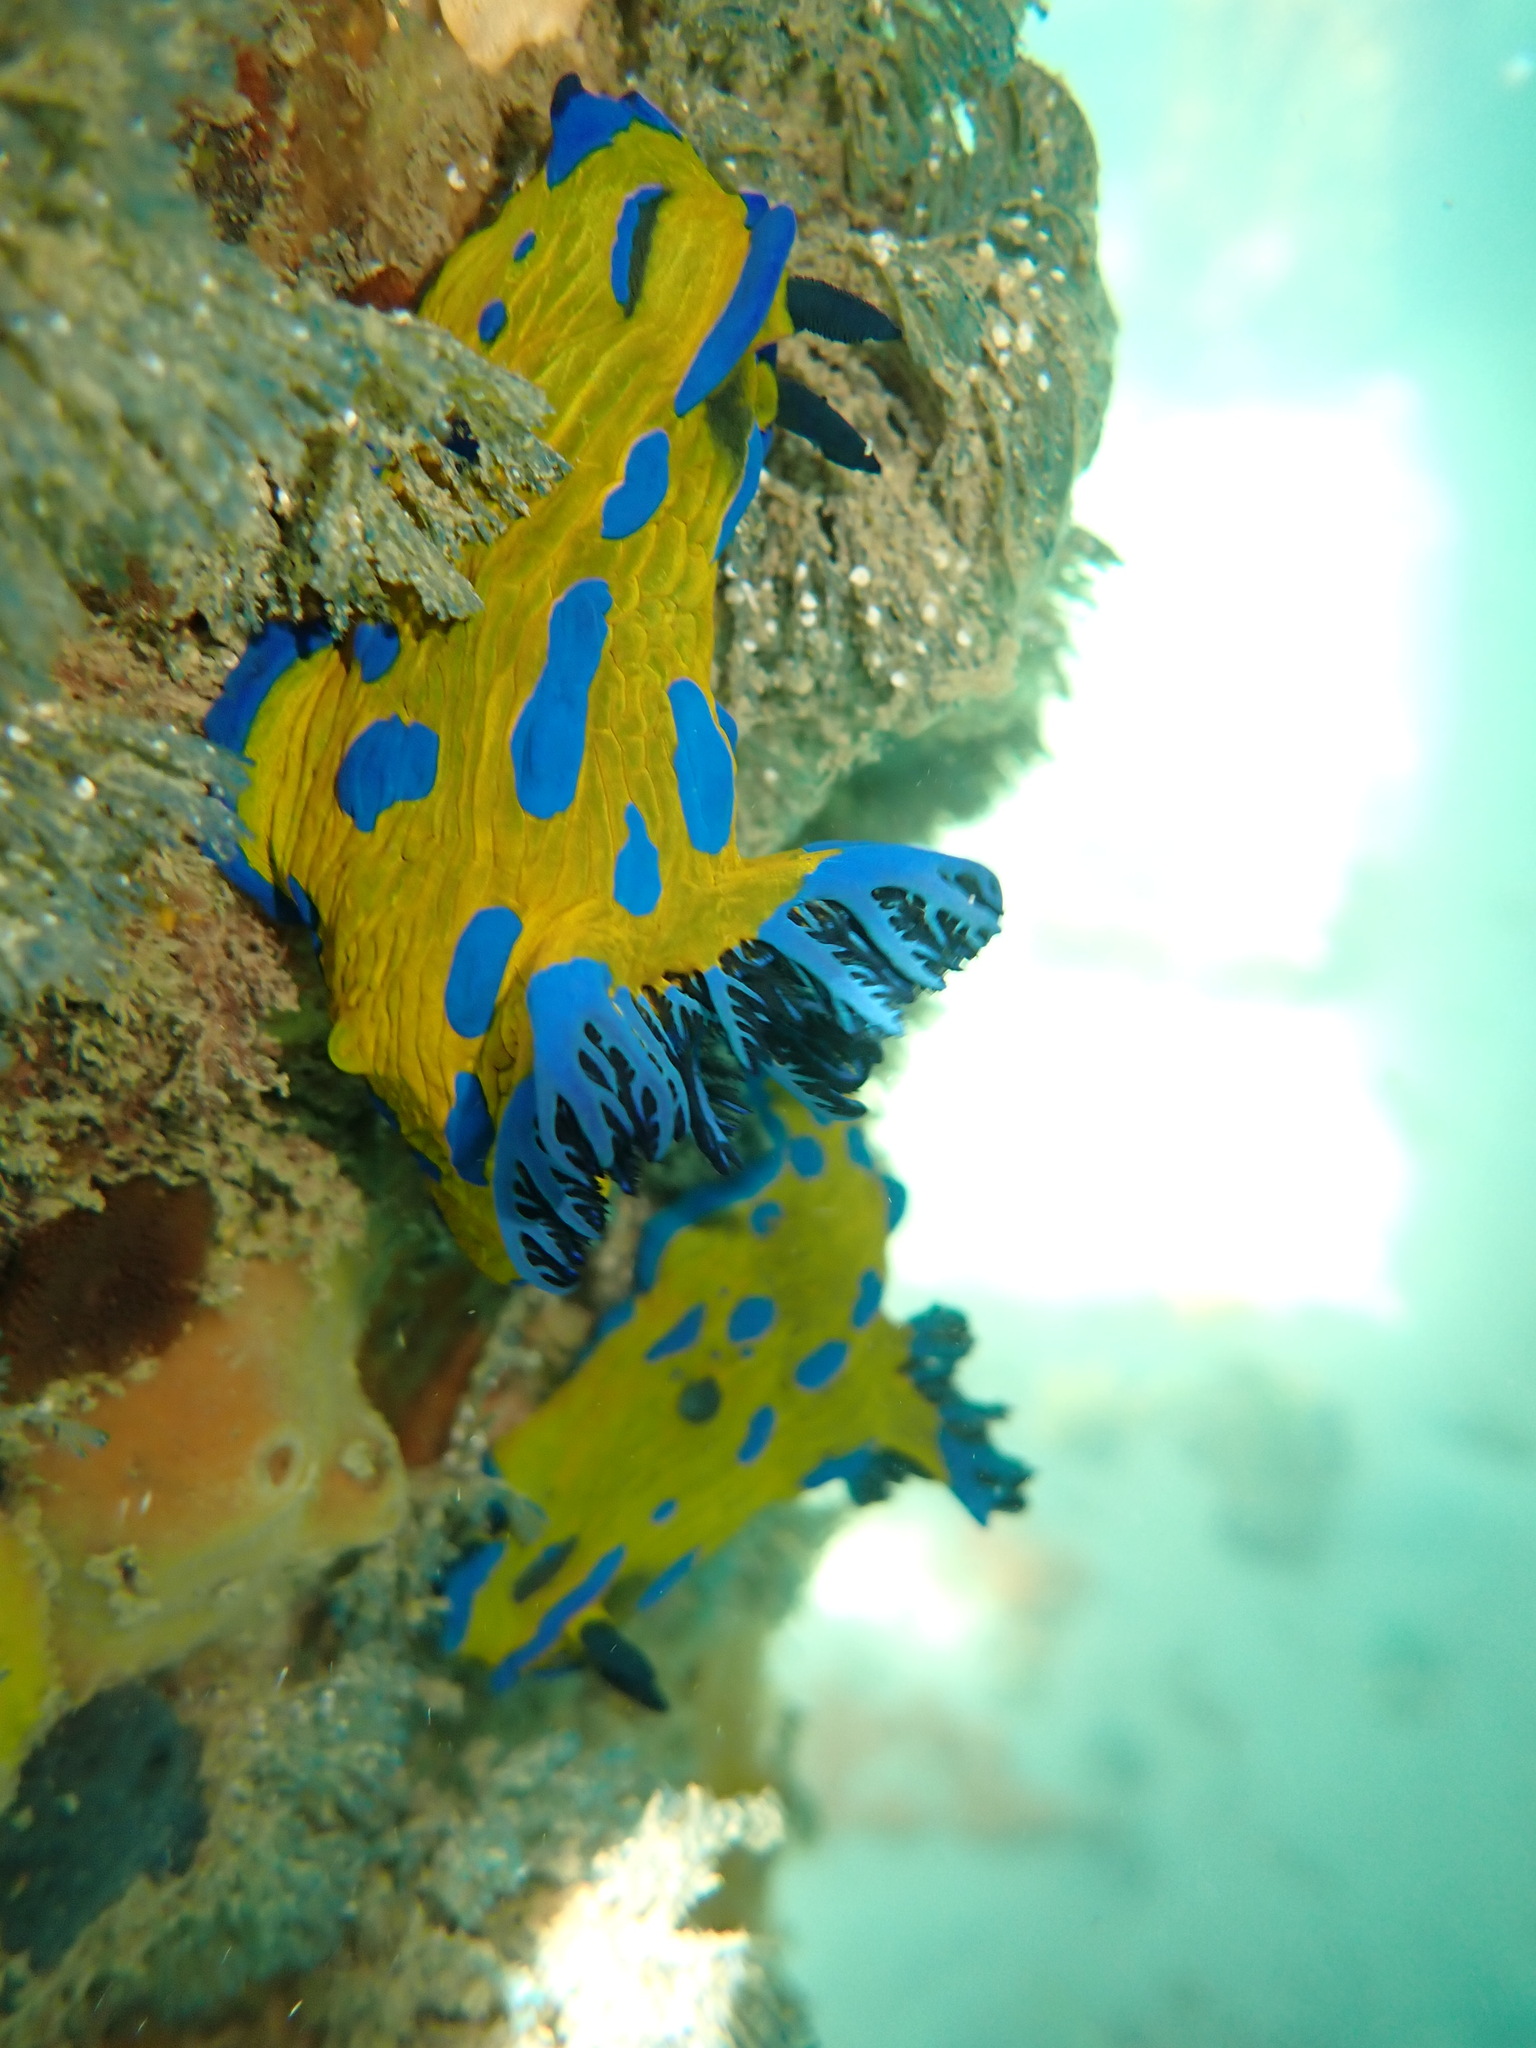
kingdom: Animalia
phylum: Mollusca
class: Gastropoda
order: Nudibranchia
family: Polyceridae
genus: Tambja
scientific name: Tambja verconis
